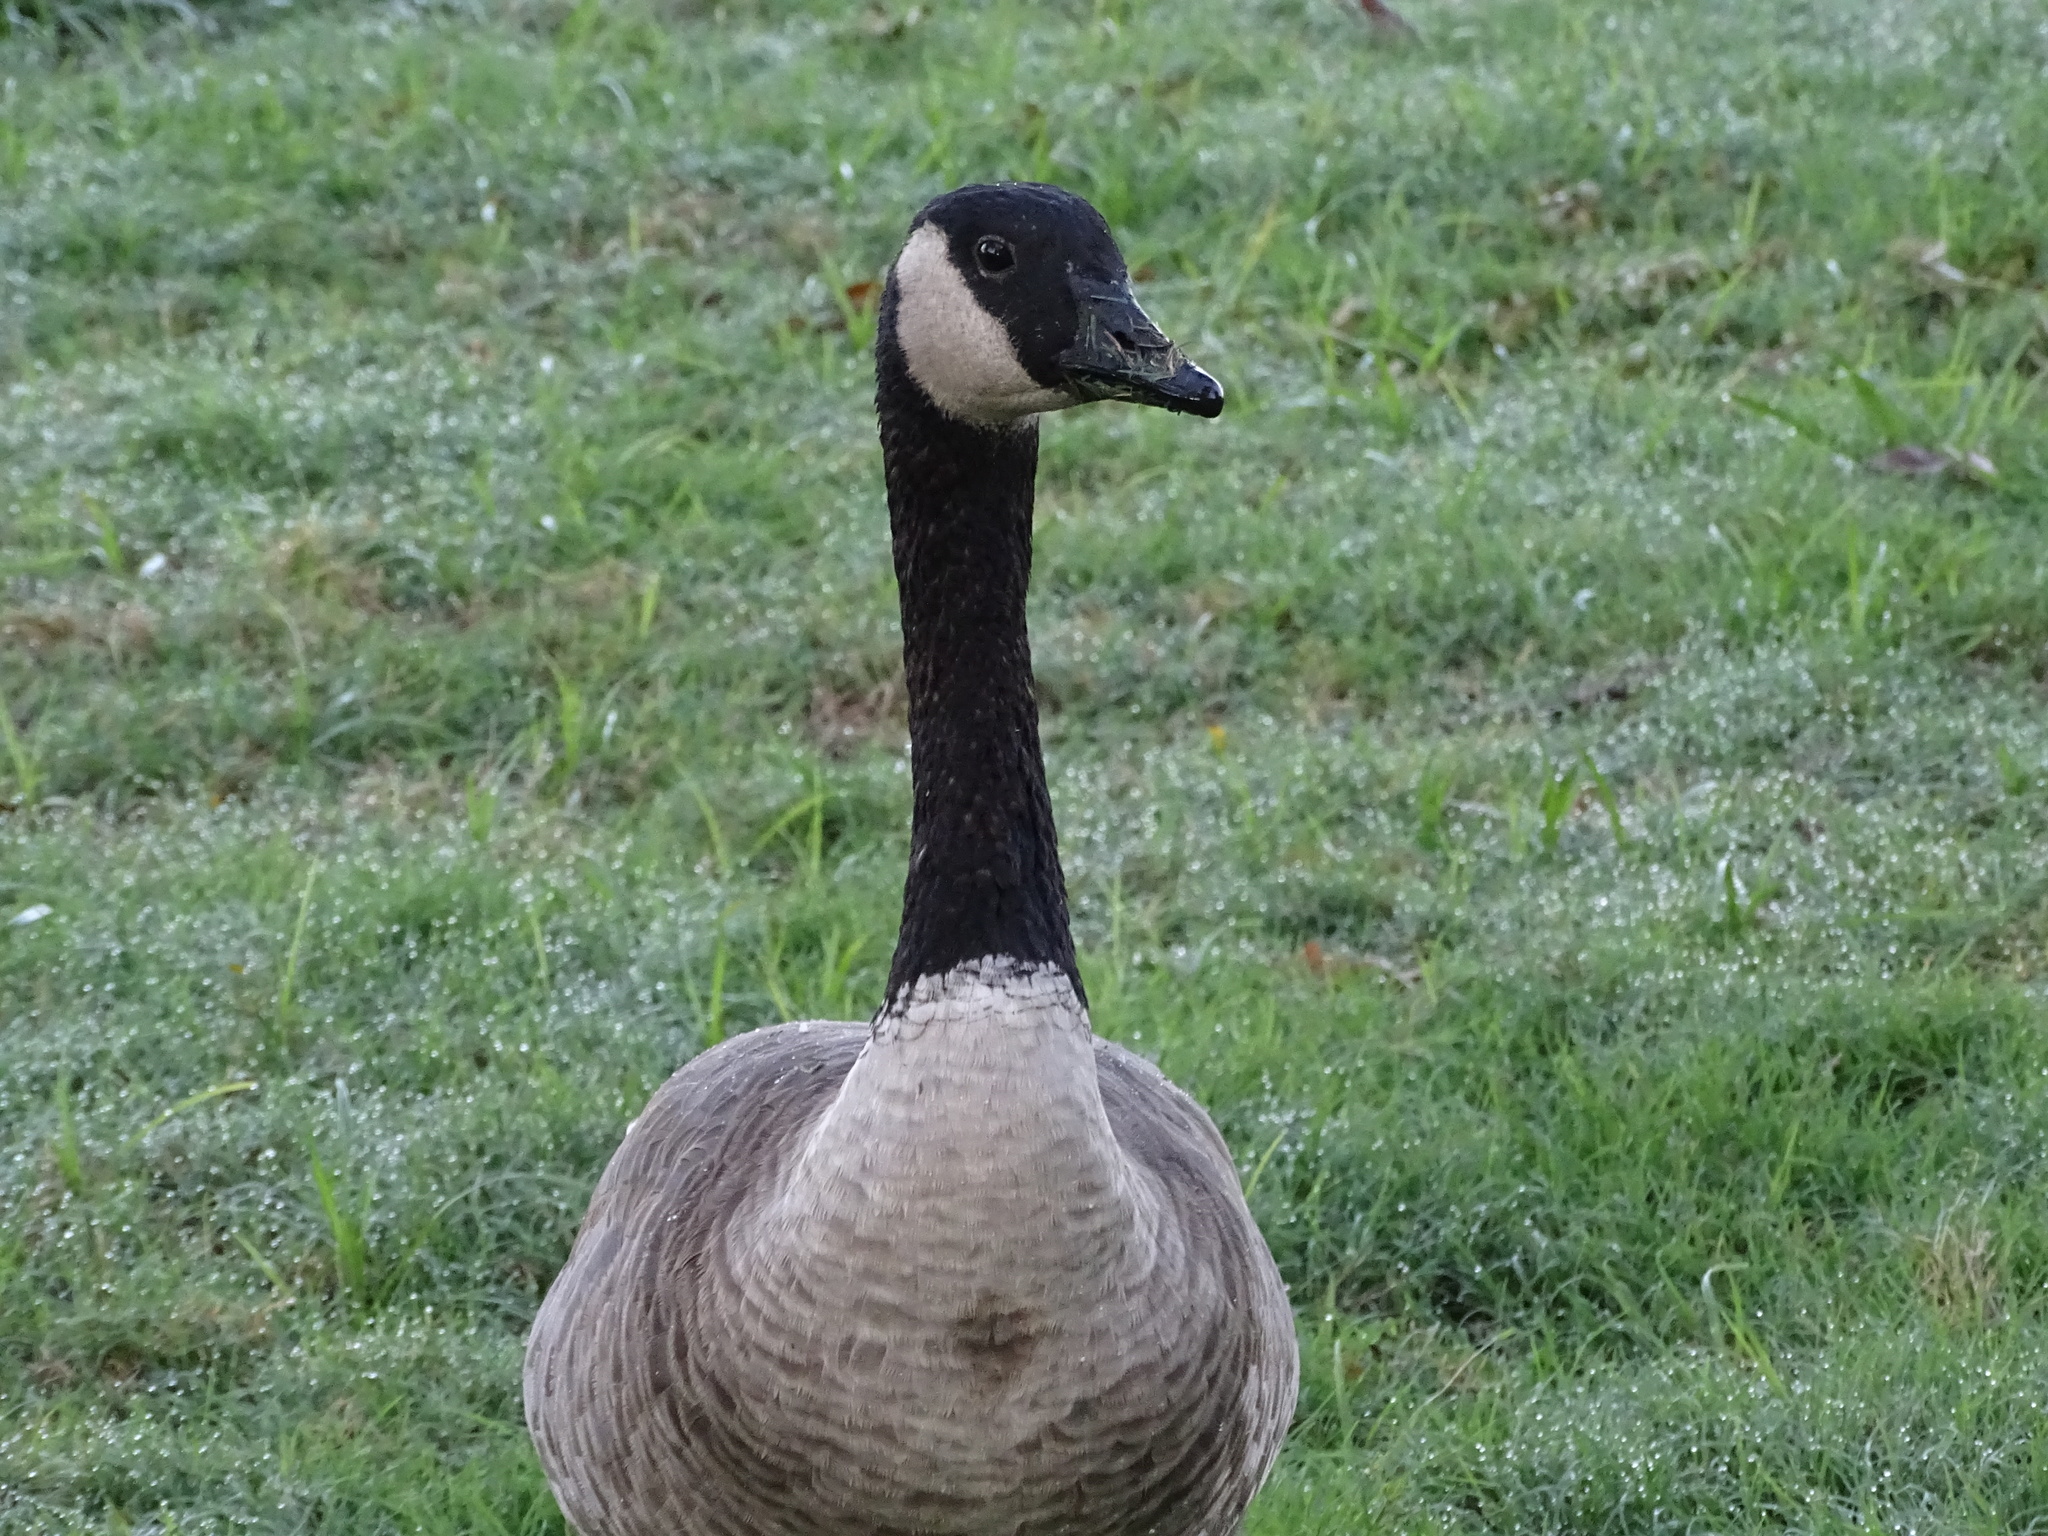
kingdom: Animalia
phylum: Chordata
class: Aves
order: Anseriformes
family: Anatidae
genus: Branta
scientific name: Branta canadensis
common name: Canada goose
